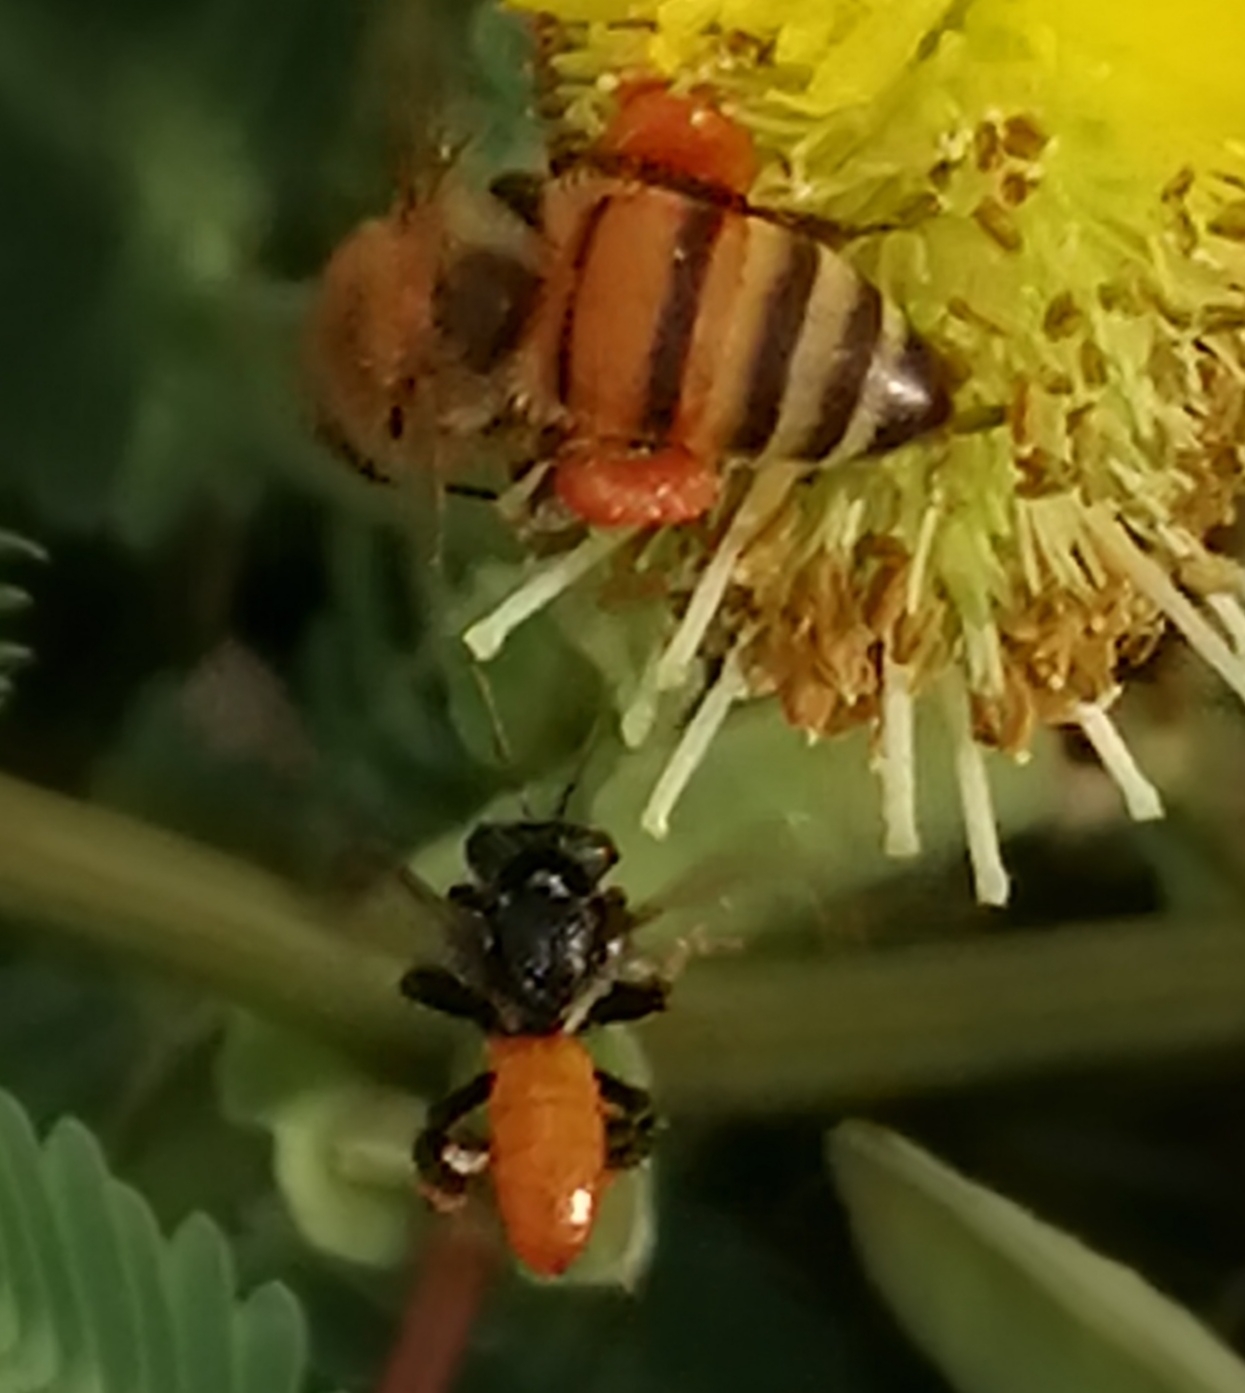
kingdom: Animalia
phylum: Arthropoda
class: Insecta
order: Hymenoptera
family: Apidae
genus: Trigona
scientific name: Trigona fulviventris
